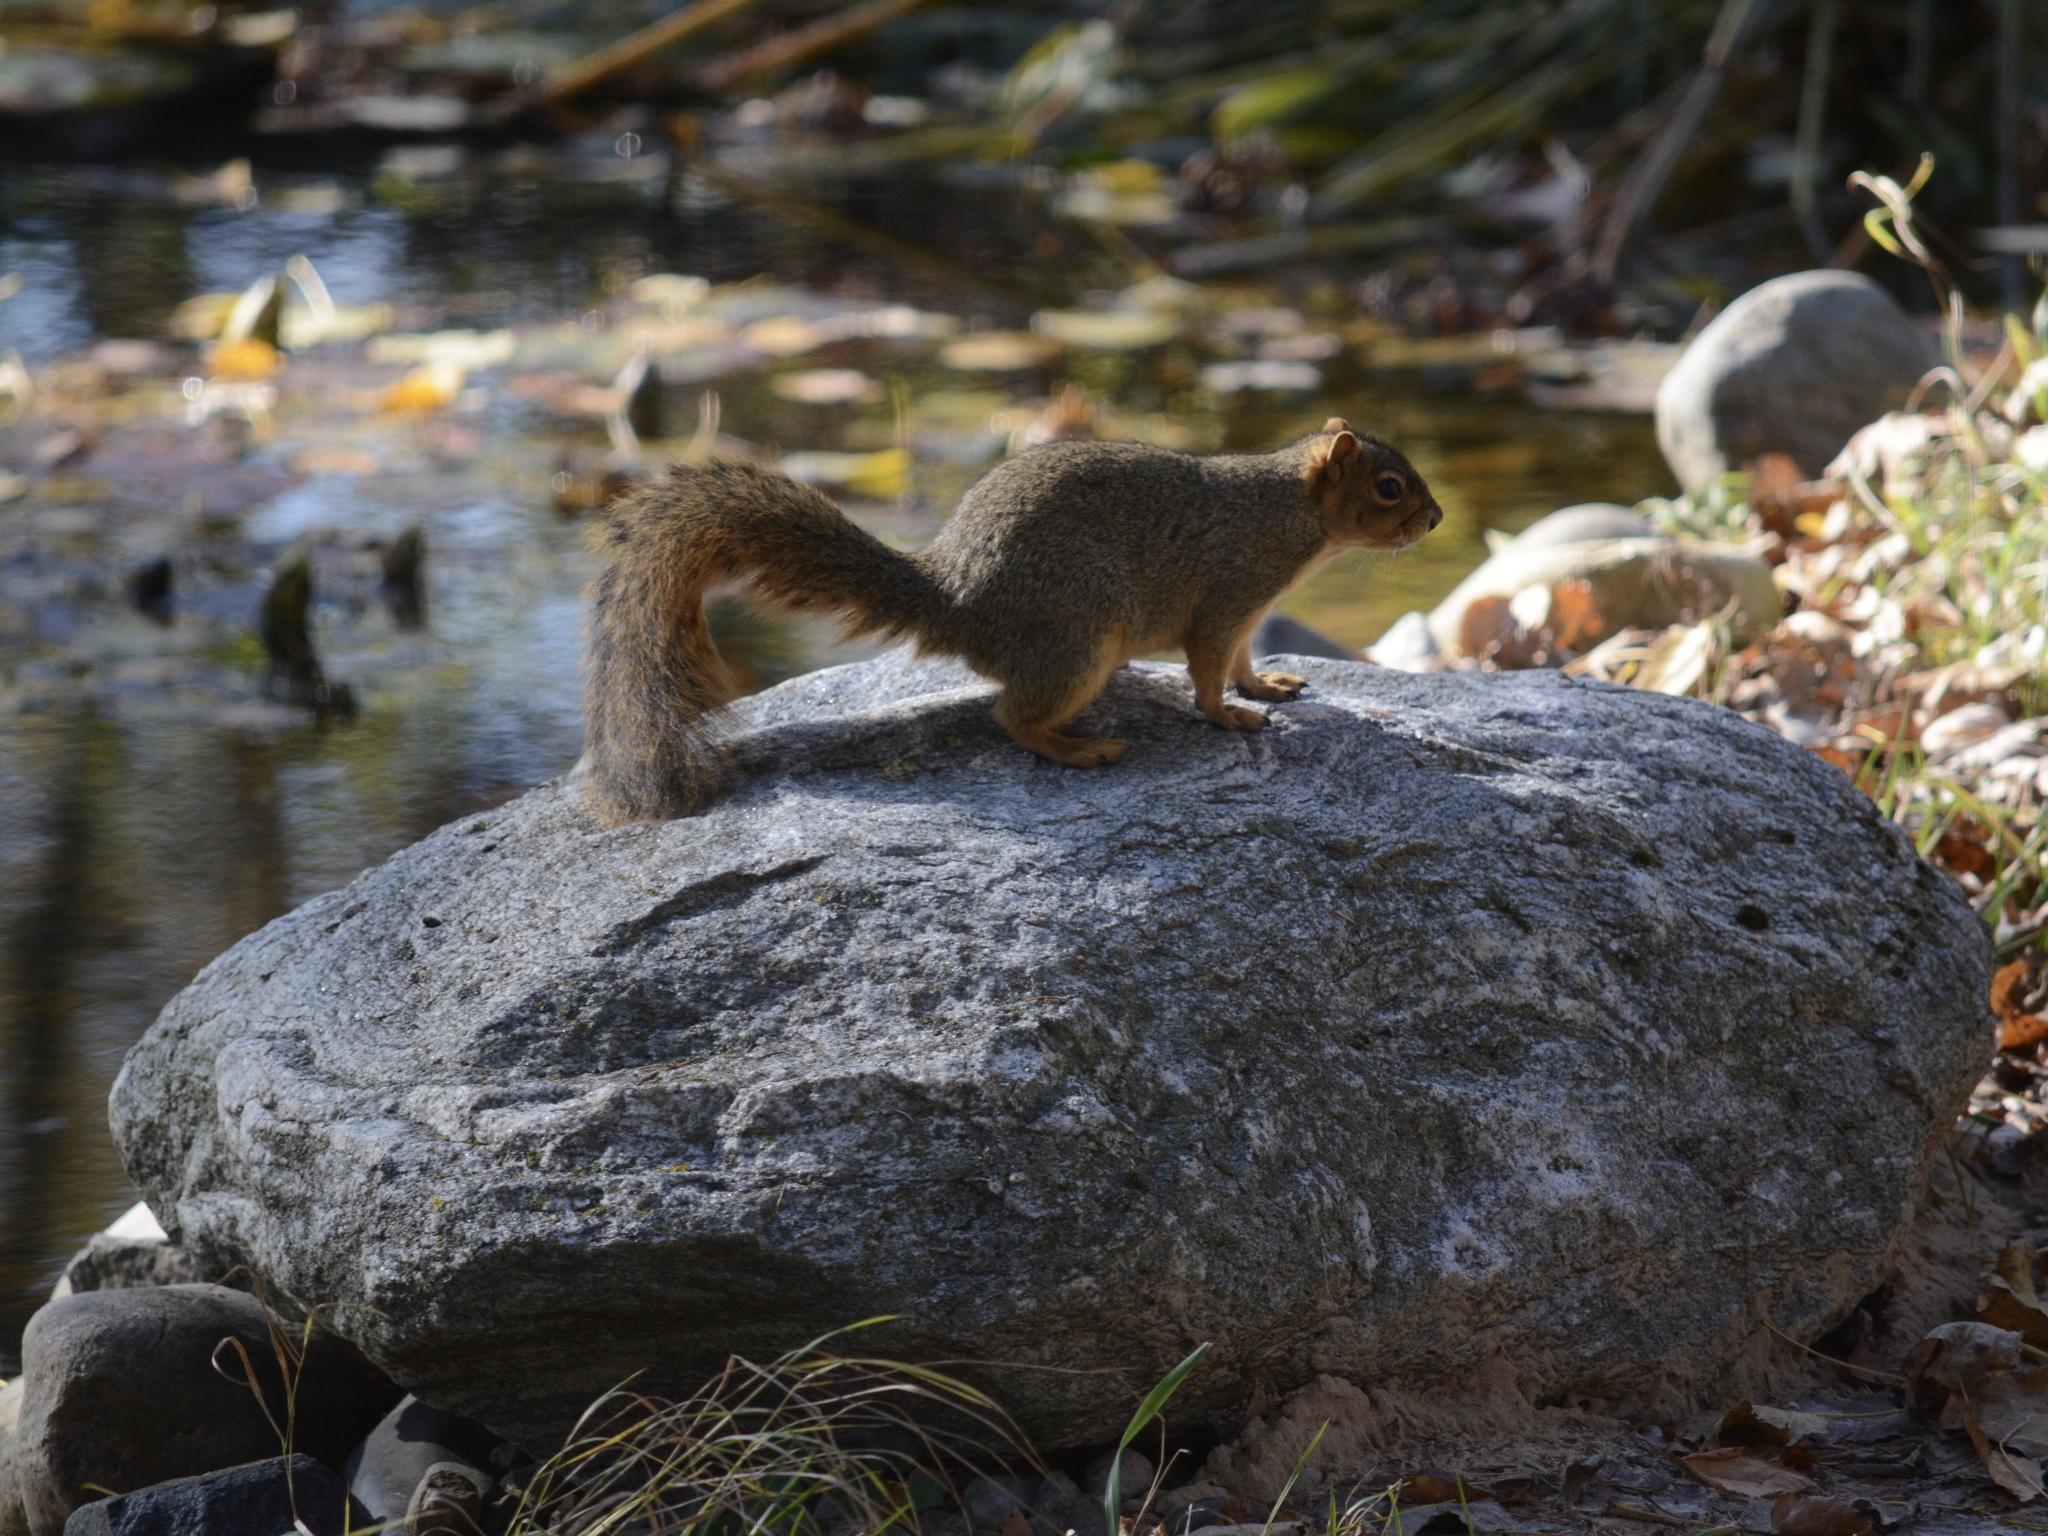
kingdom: Animalia
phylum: Chordata
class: Mammalia
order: Rodentia
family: Sciuridae
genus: Sciurus
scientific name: Sciurus niger
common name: Fox squirrel
